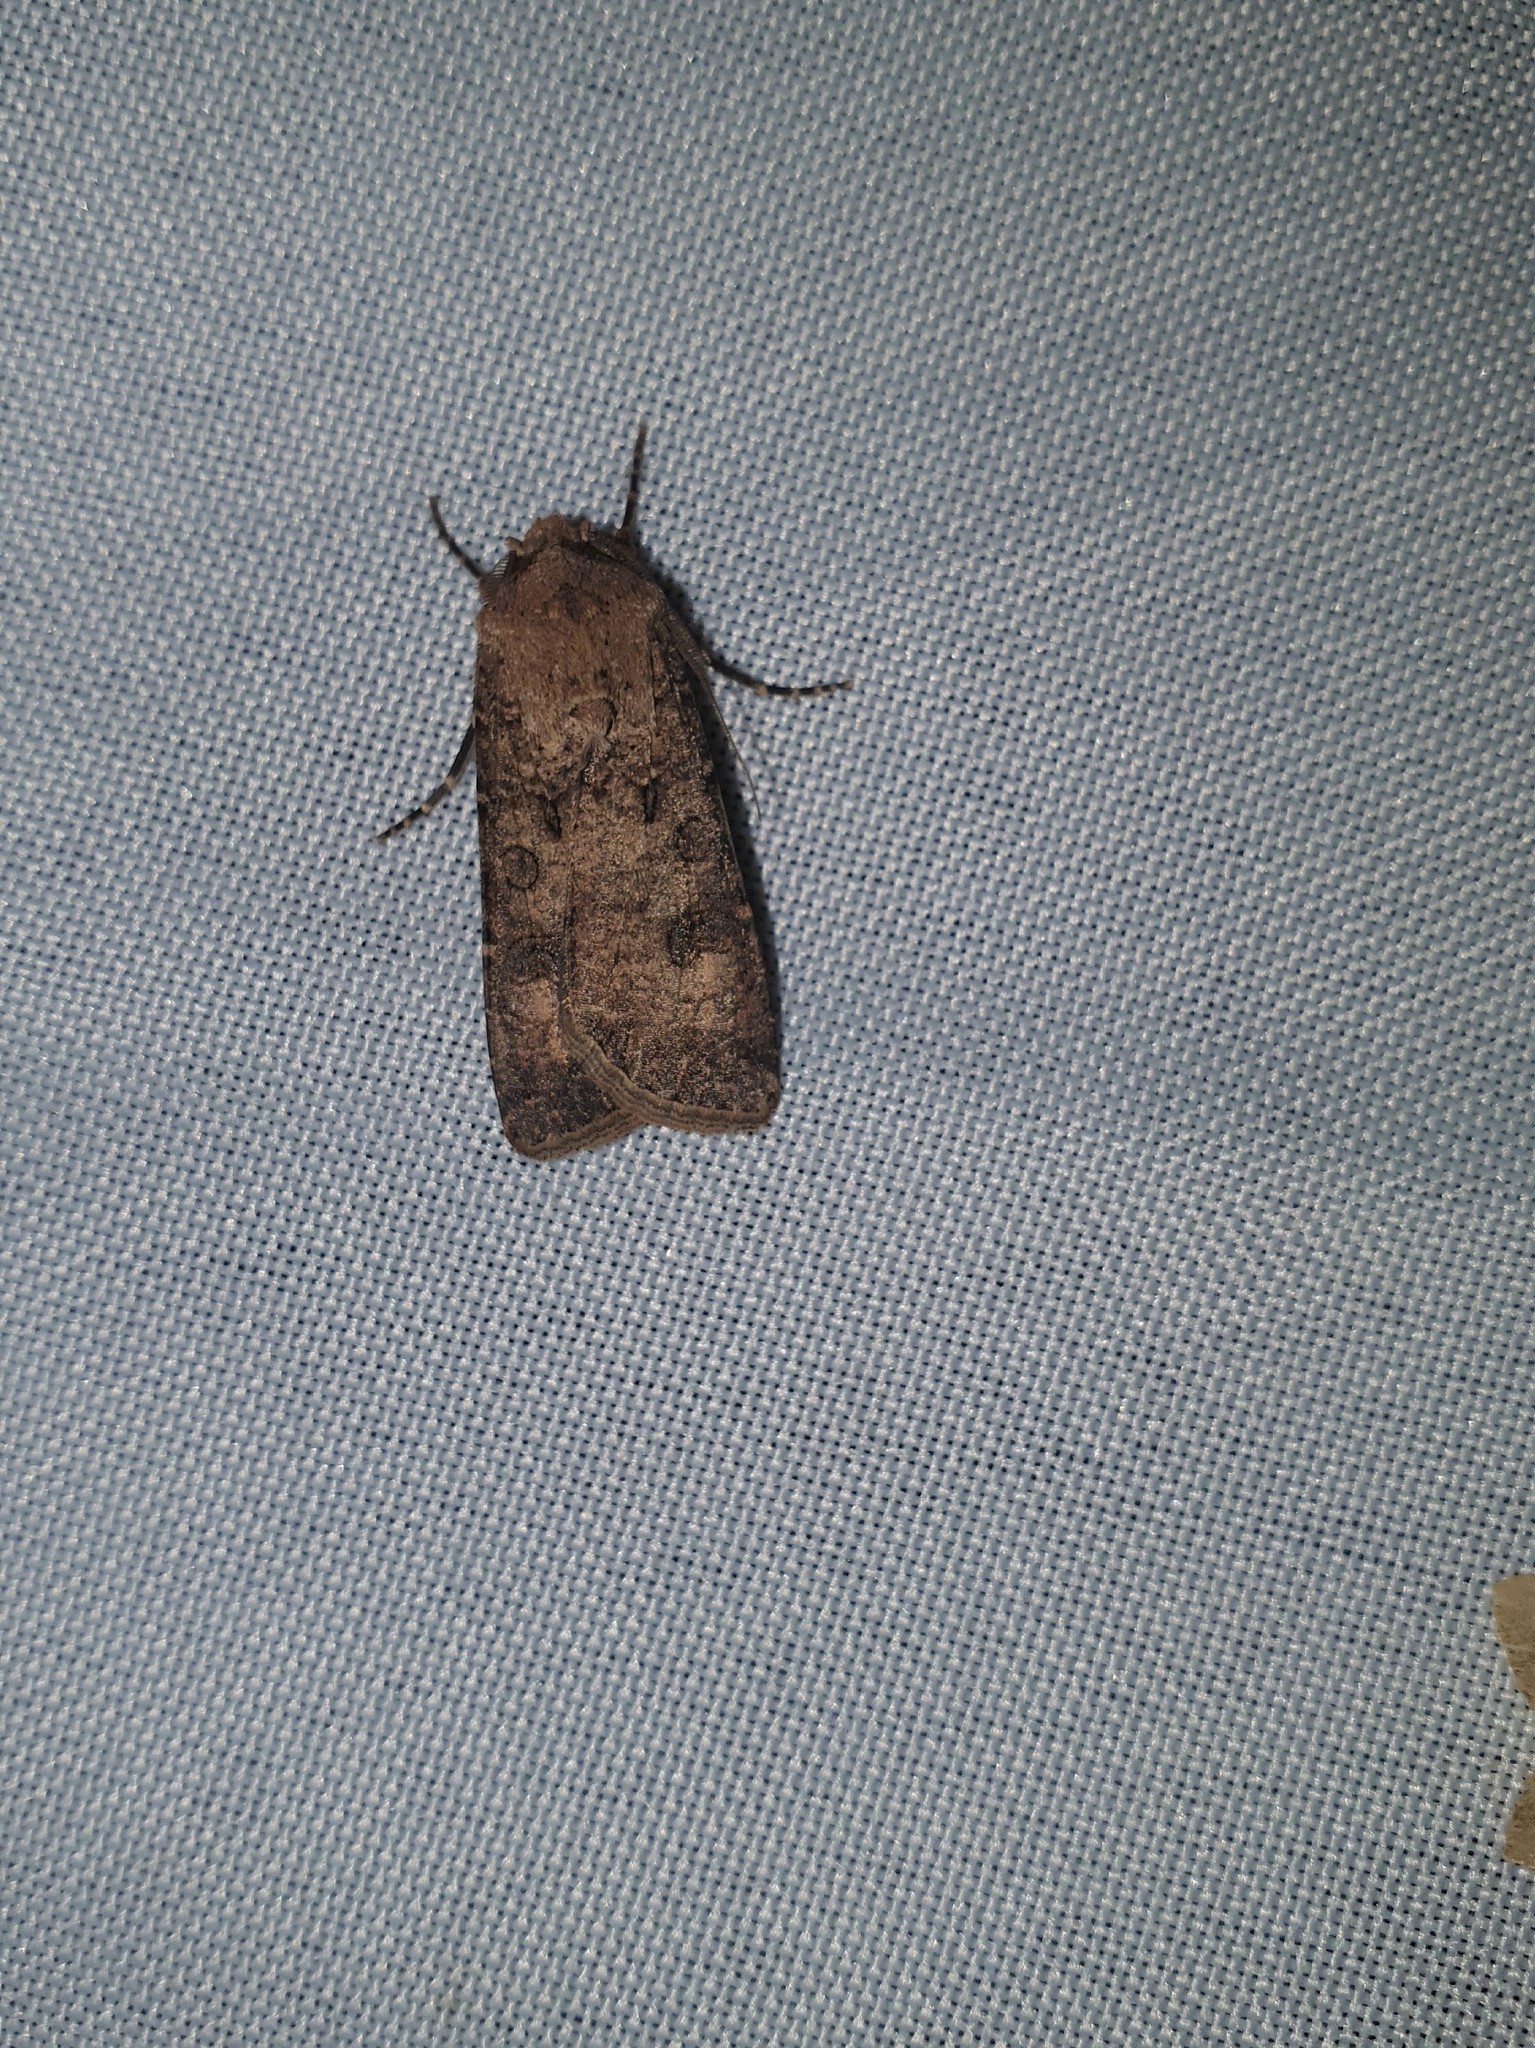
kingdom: Animalia
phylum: Arthropoda
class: Insecta
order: Lepidoptera
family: Noctuidae
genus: Agrotis
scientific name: Agrotis segetum
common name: Turnip moth
